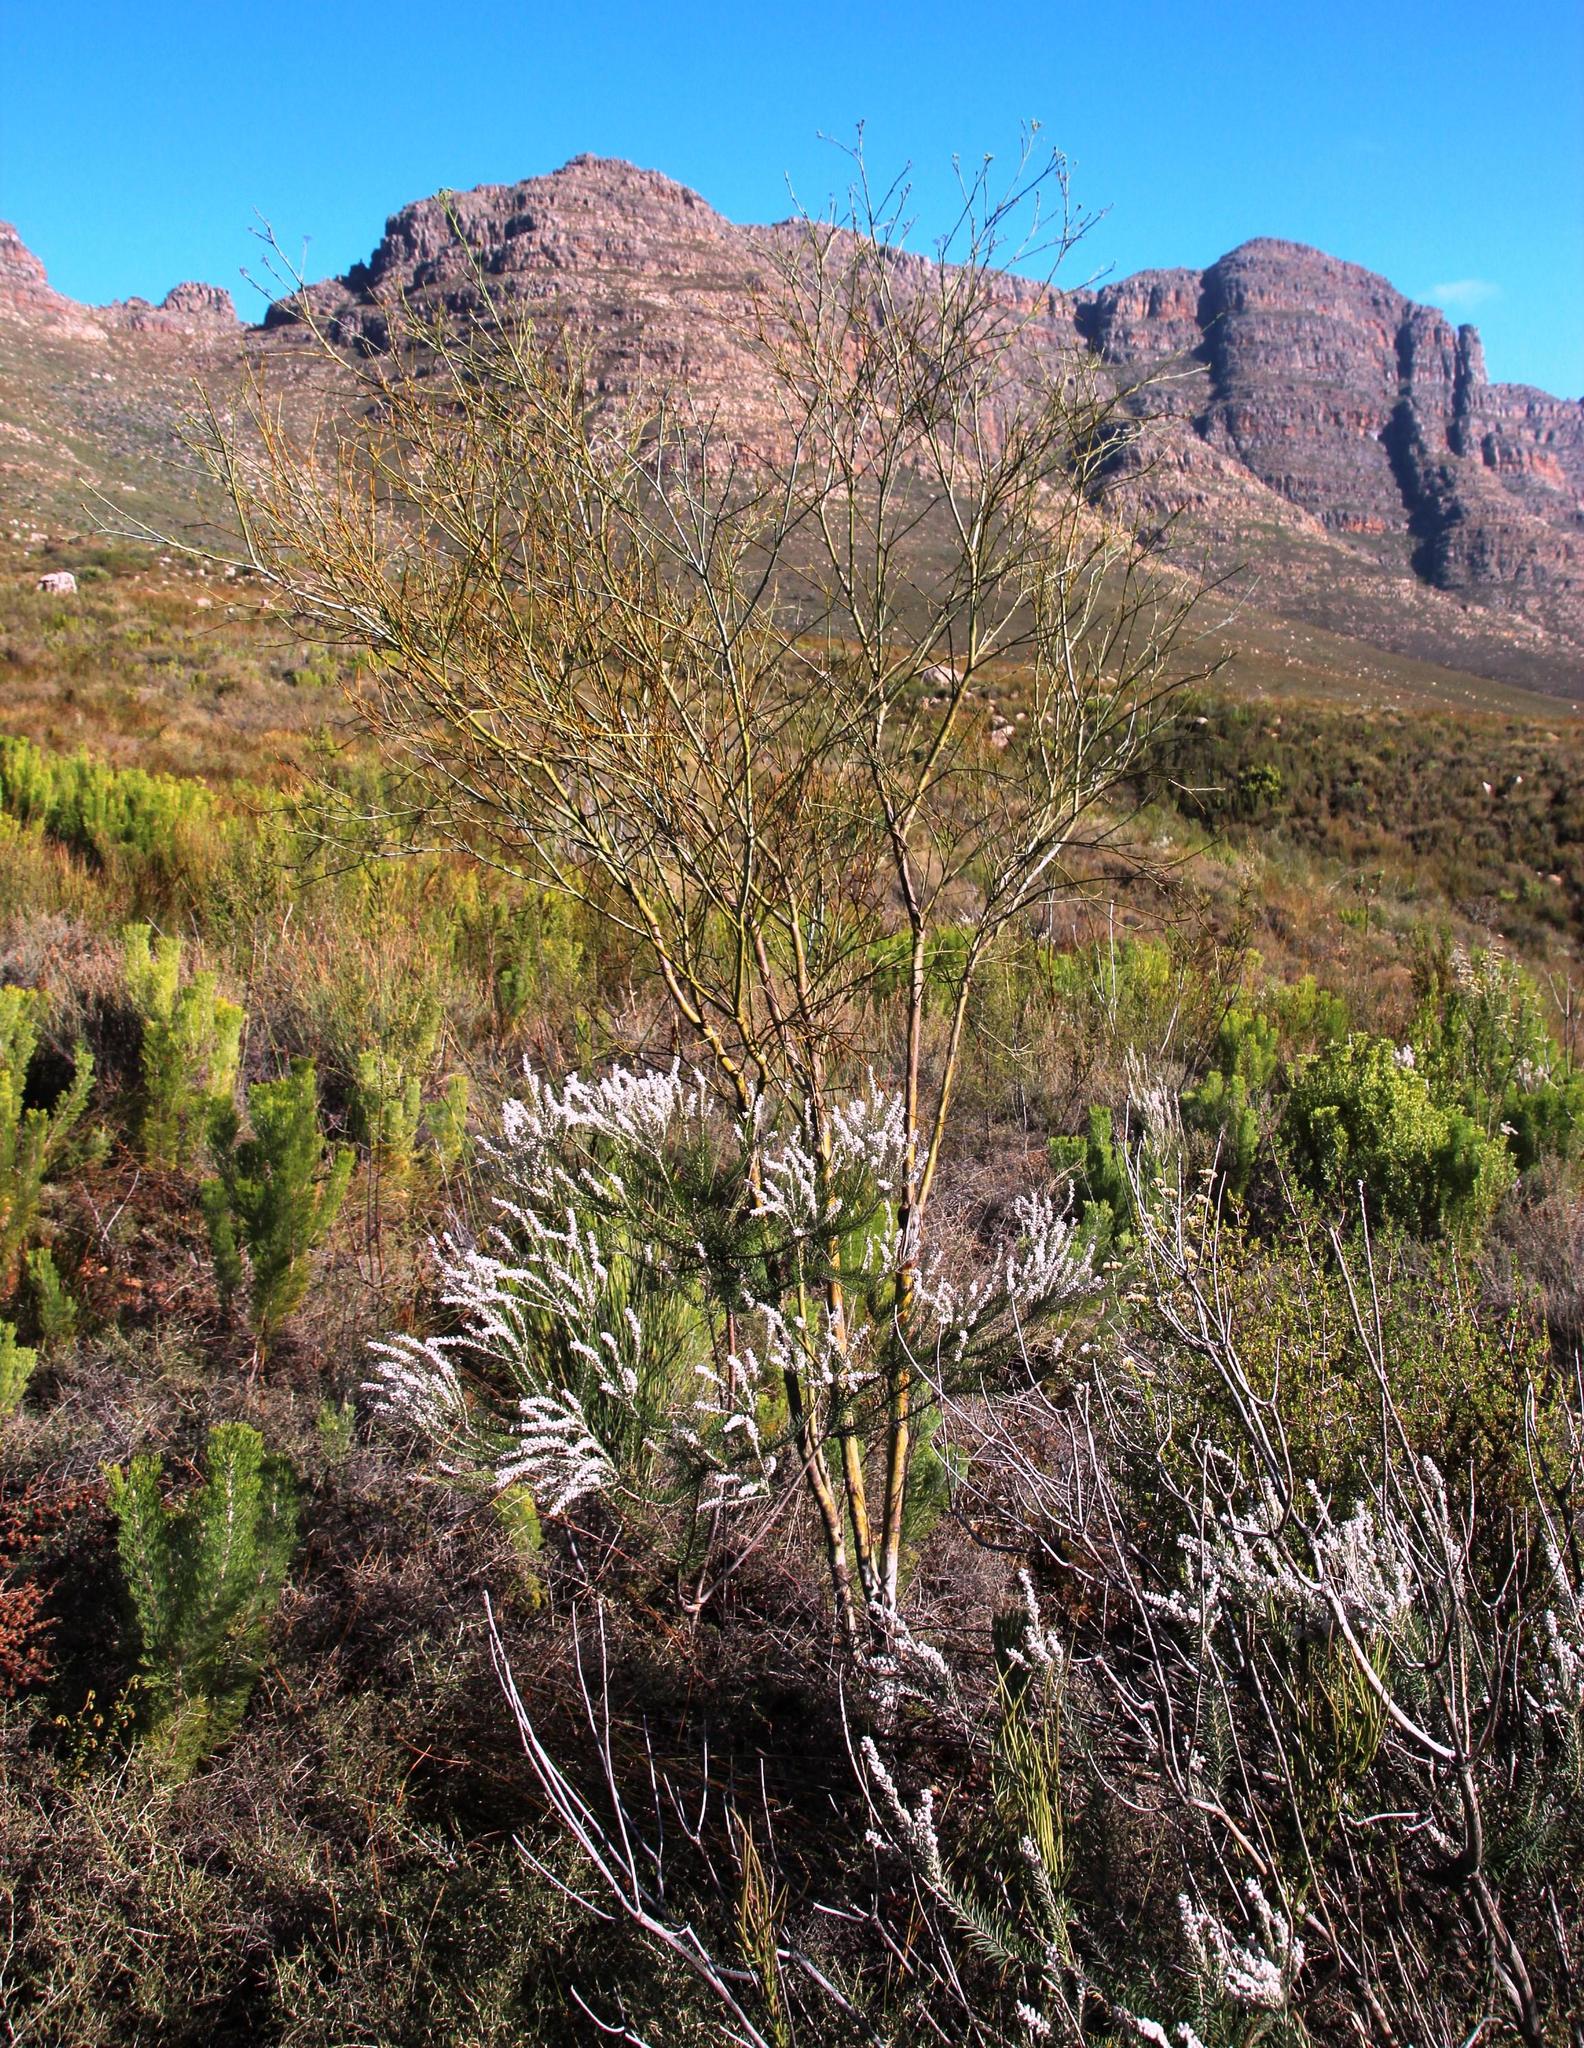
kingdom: Plantae
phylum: Tracheophyta
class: Magnoliopsida
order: Santalales
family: Thesiaceae
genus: Thesium
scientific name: Thesium strictum
